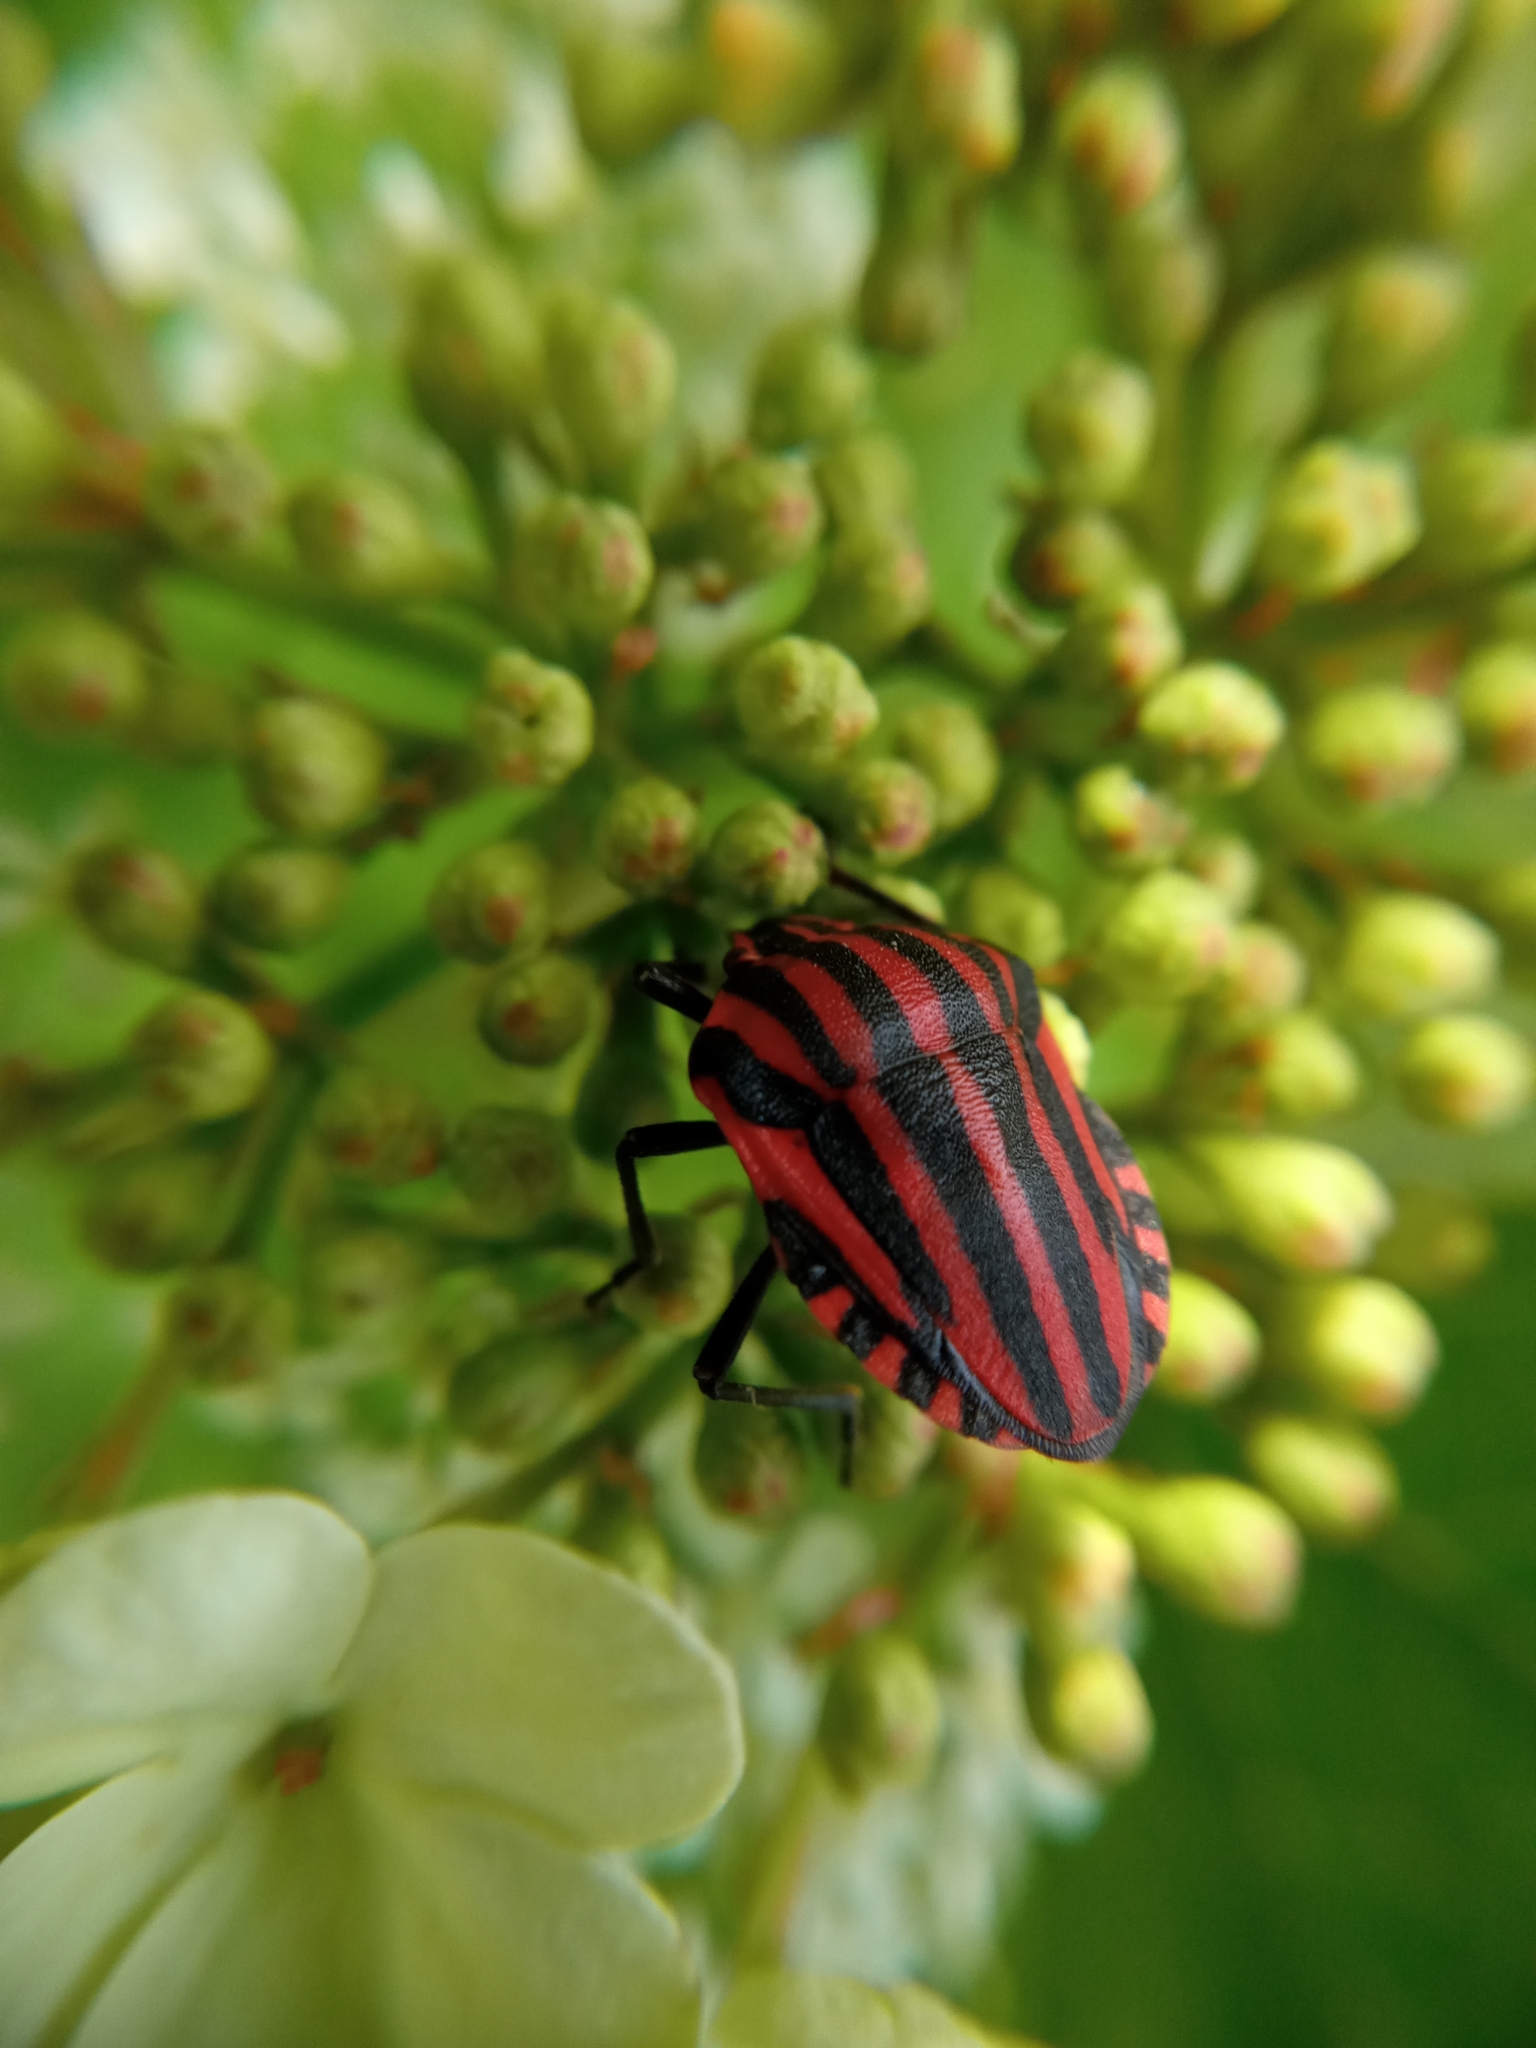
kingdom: Animalia
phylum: Arthropoda
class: Insecta
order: Hemiptera
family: Pentatomidae
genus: Graphosoma
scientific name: Graphosoma italicum
